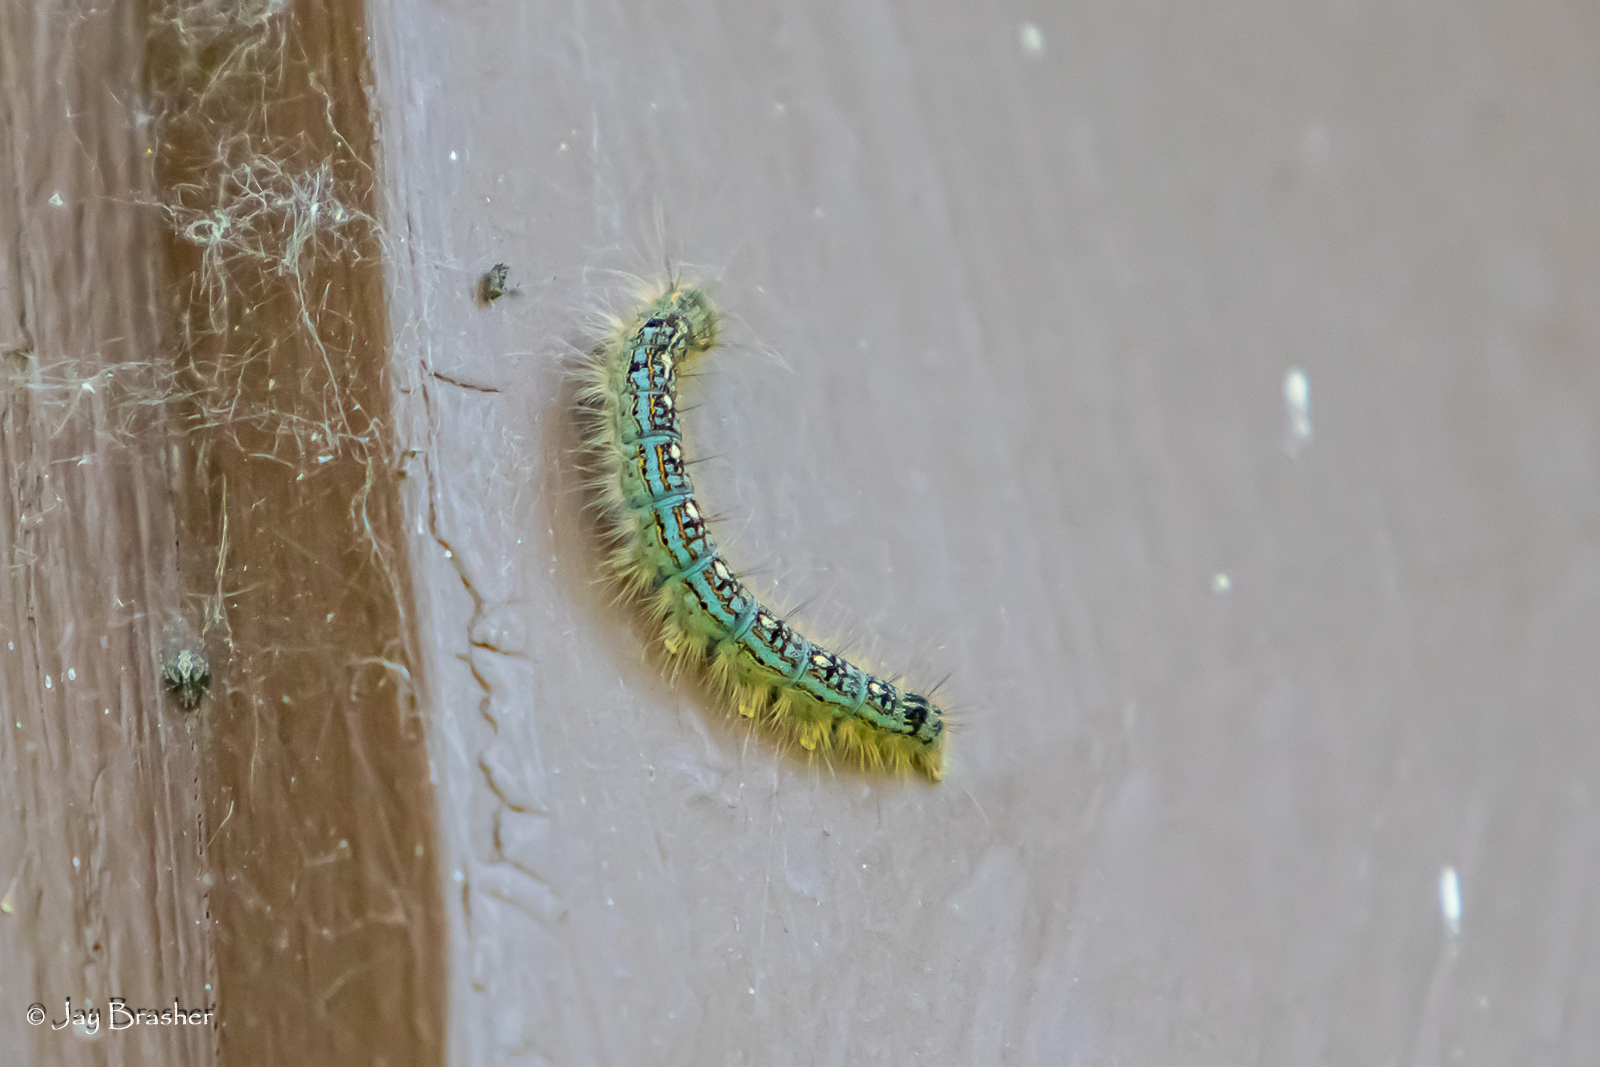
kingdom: Animalia
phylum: Arthropoda
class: Insecta
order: Lepidoptera
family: Lasiocampidae
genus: Malacosoma
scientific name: Malacosoma disstria
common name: Forest tent caterpillar
